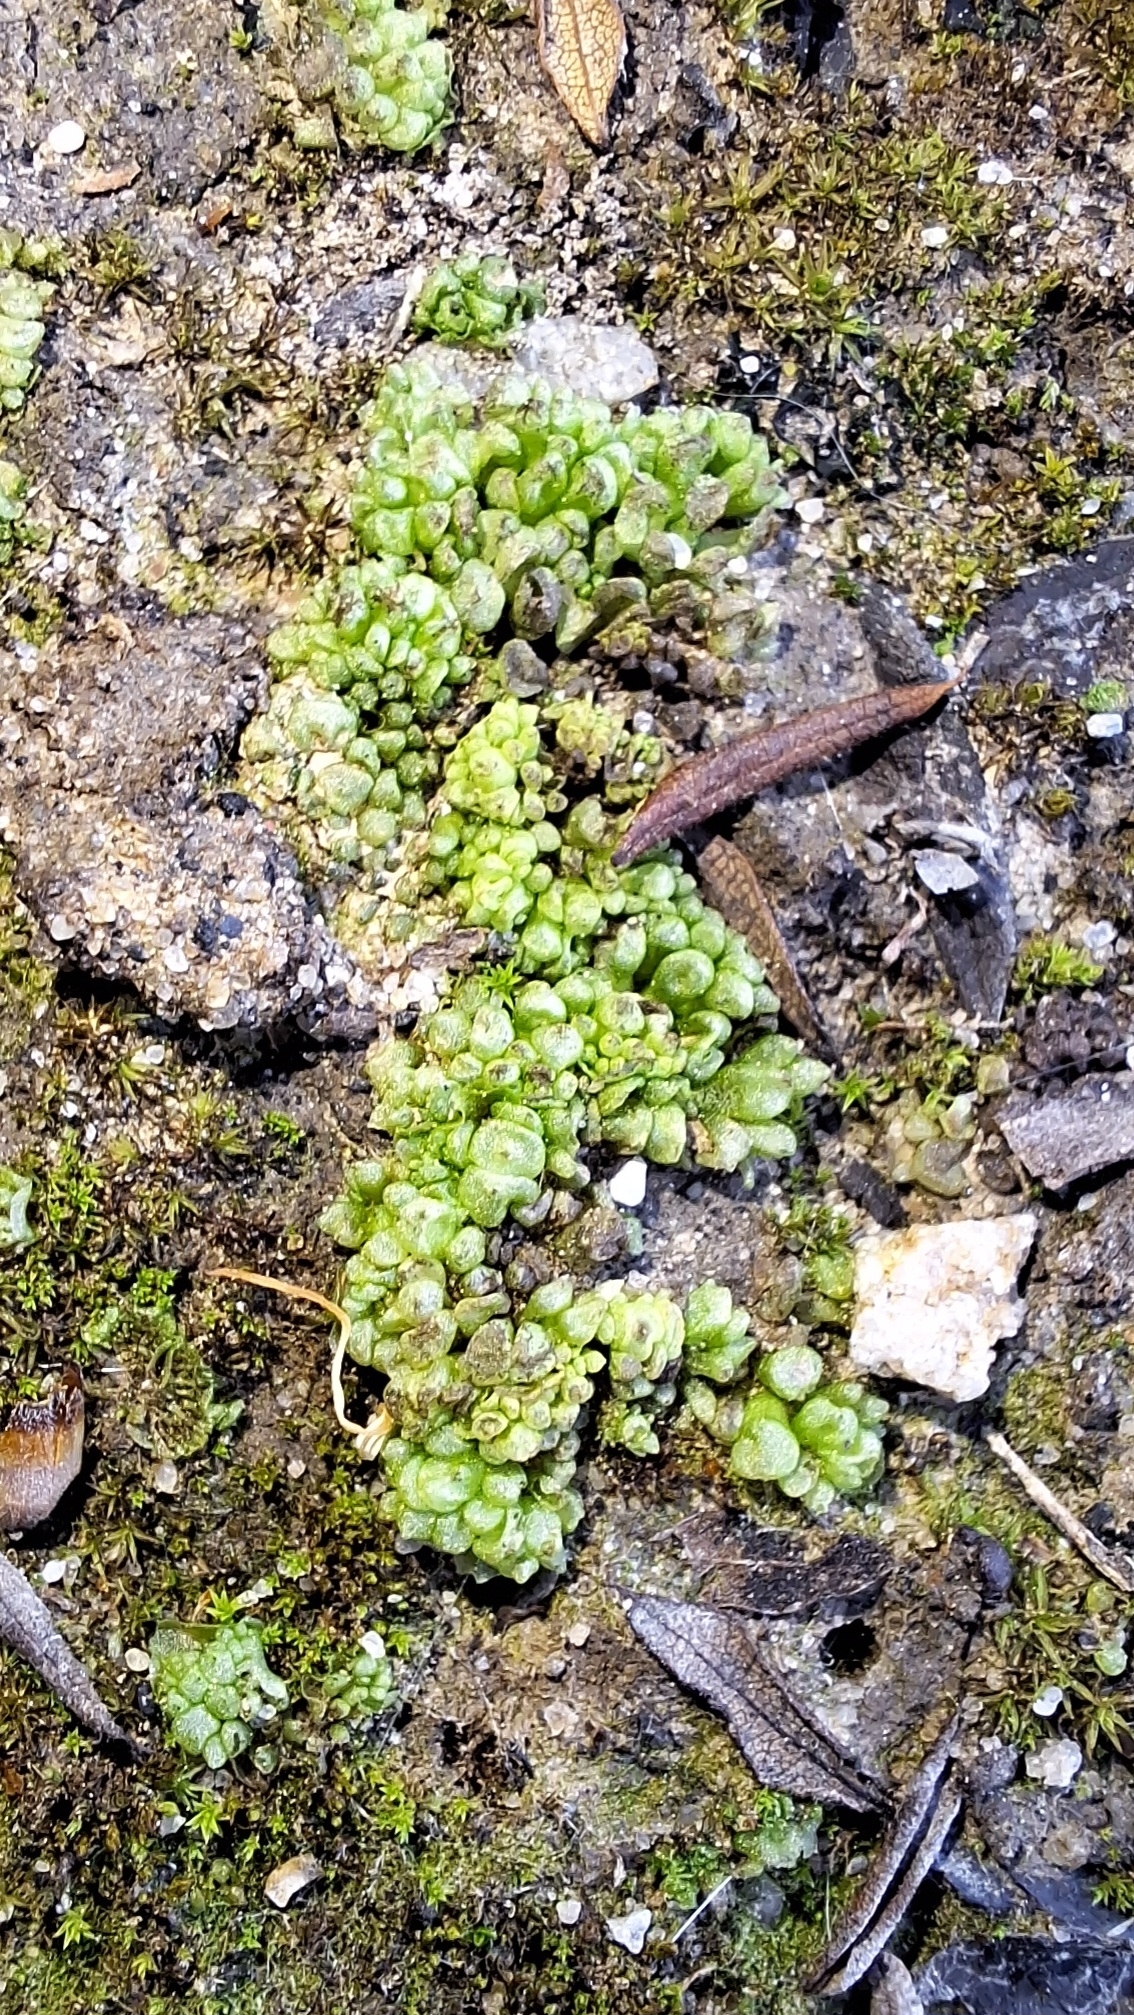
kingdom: Plantae
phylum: Marchantiophyta
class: Marchantiopsida
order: Sphaerocarpales
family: Sphaerocarpaceae
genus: Sphaerocarpos
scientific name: Sphaerocarpos texanus
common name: Texas balloonwort
